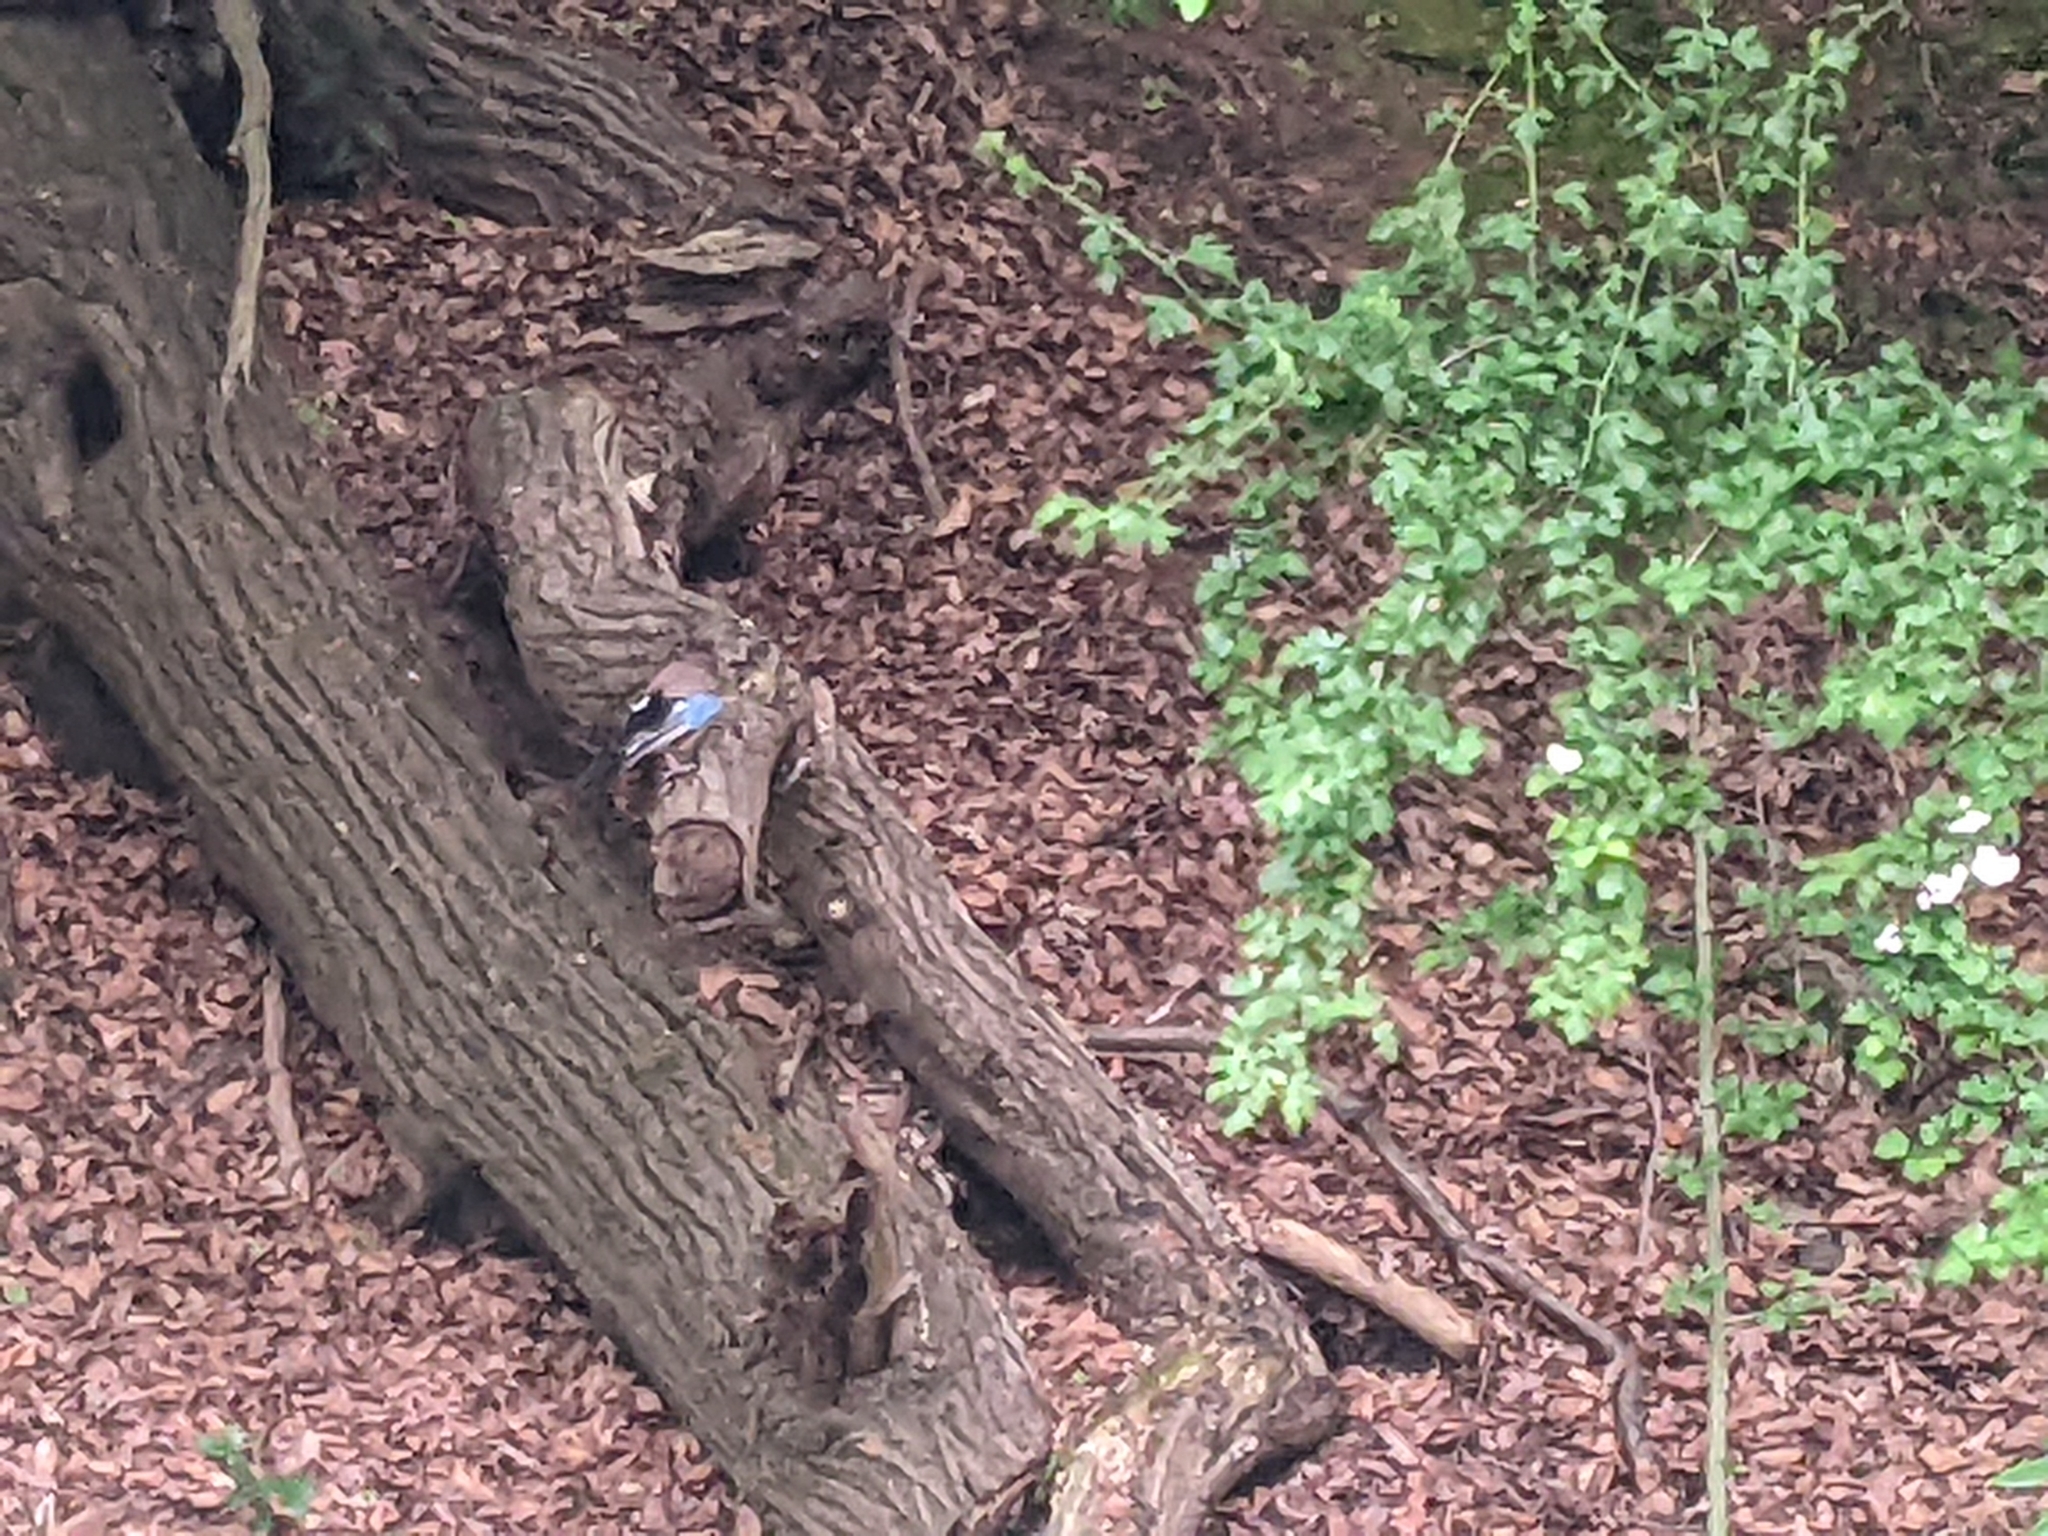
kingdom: Animalia
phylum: Chordata
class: Aves
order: Passeriformes
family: Corvidae
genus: Garrulus
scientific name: Garrulus glandarius
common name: Eurasian jay
